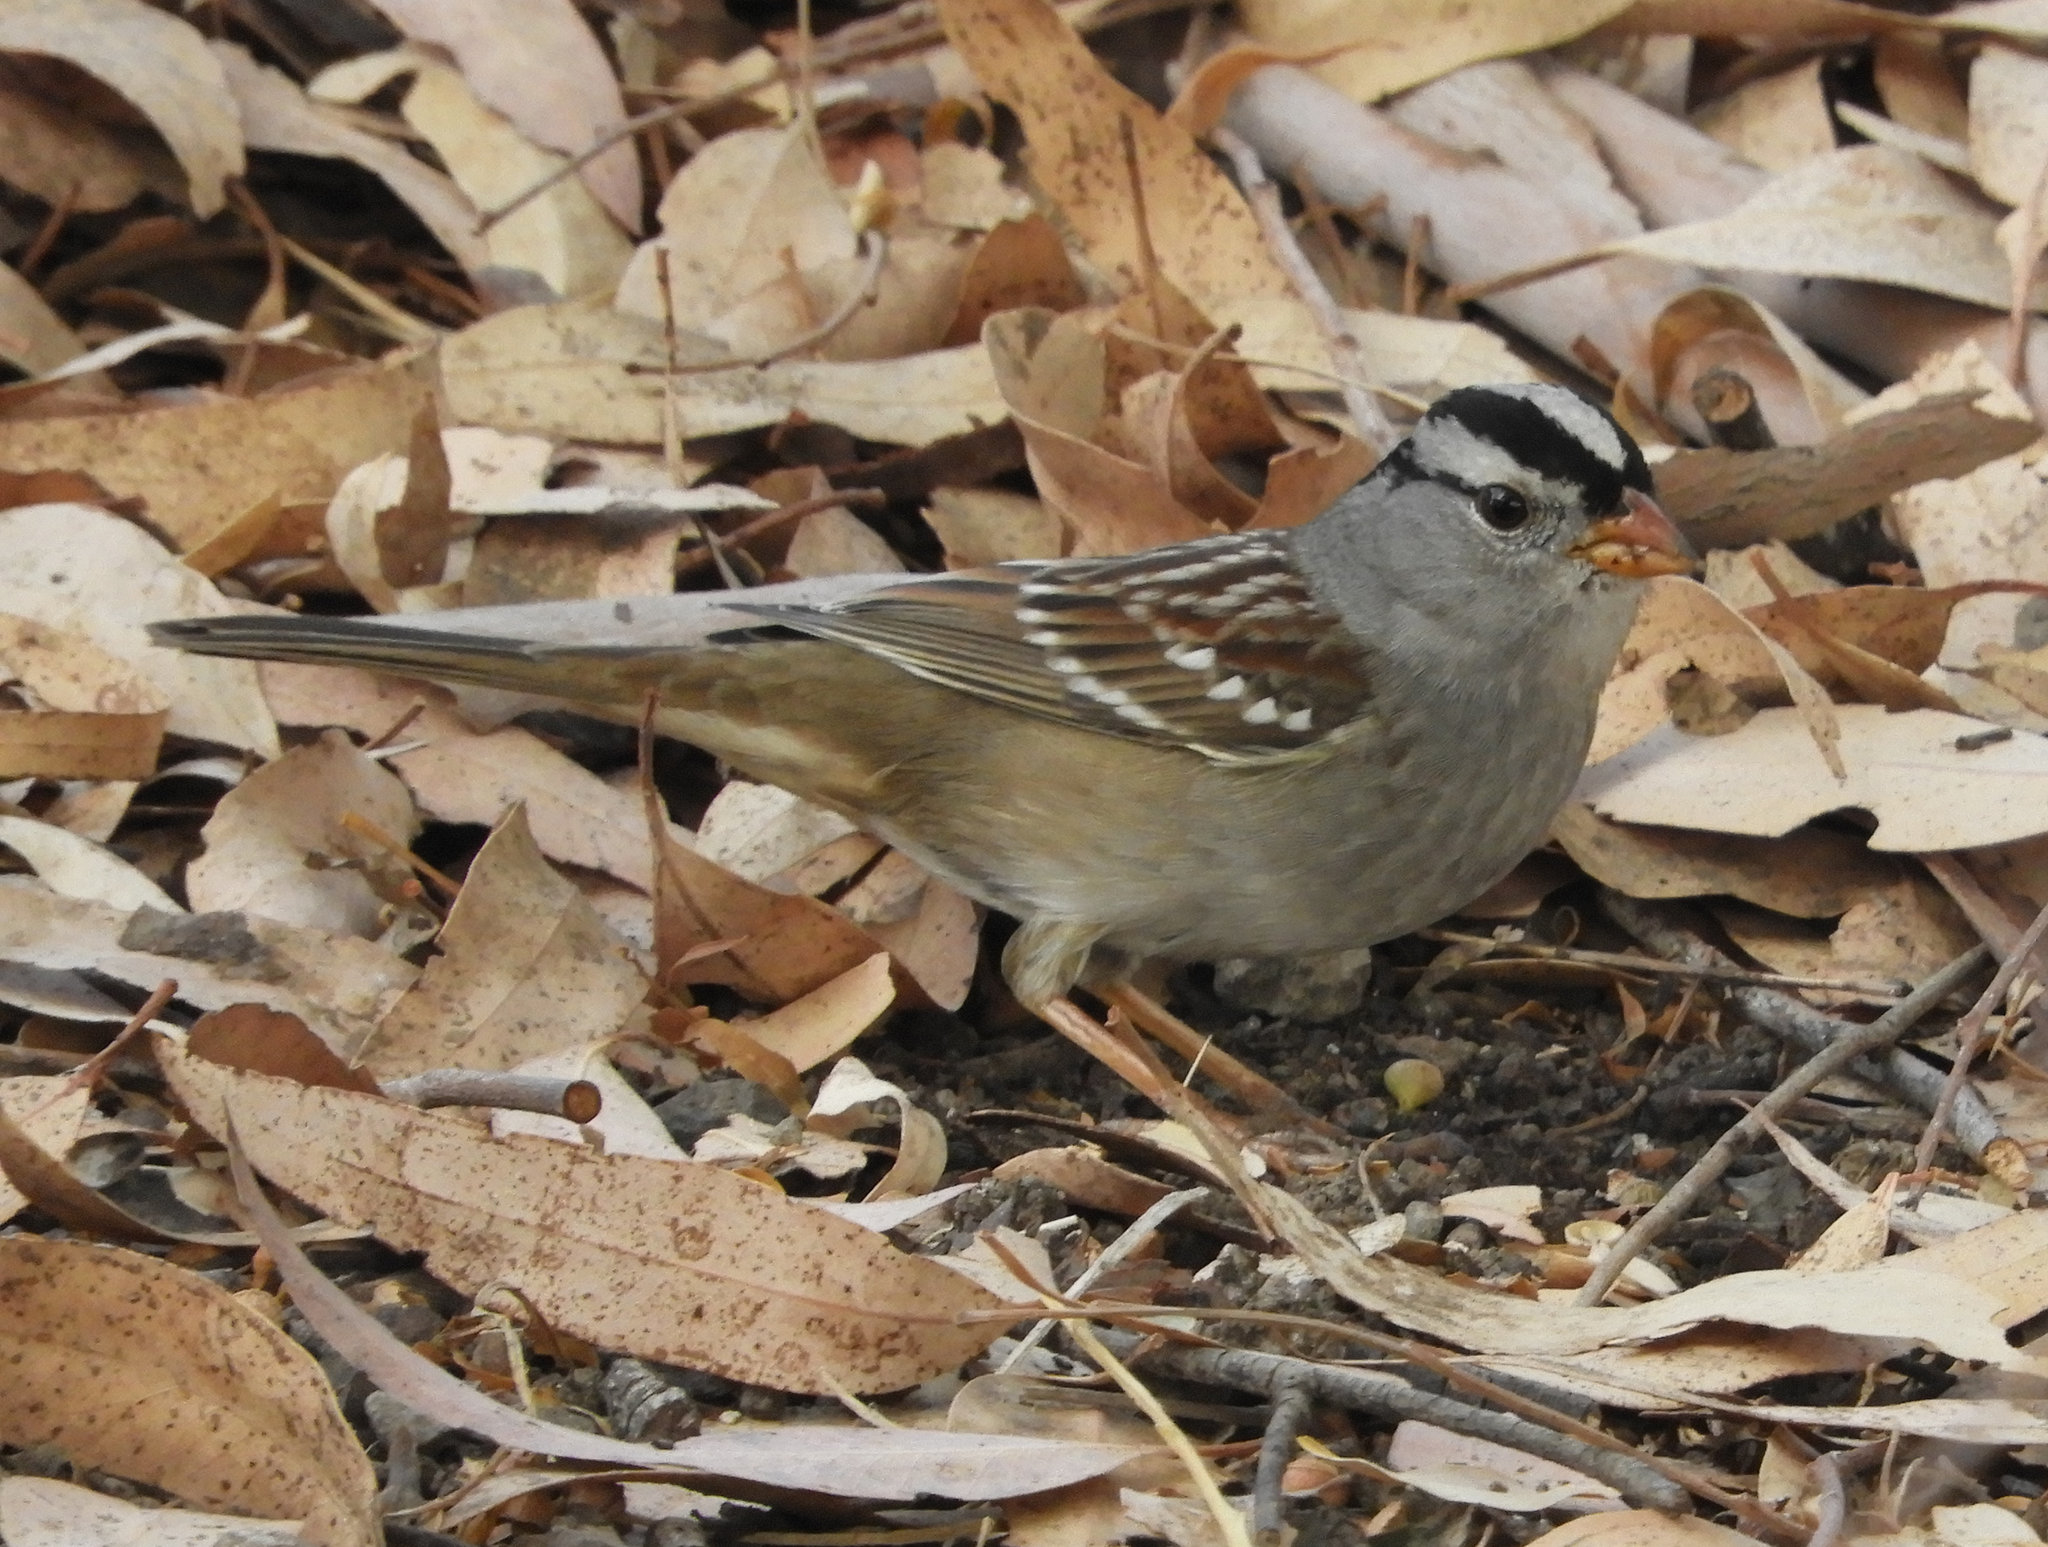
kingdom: Animalia
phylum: Chordata
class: Aves
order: Passeriformes
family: Passerellidae
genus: Zonotrichia
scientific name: Zonotrichia leucophrys
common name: White-crowned sparrow
